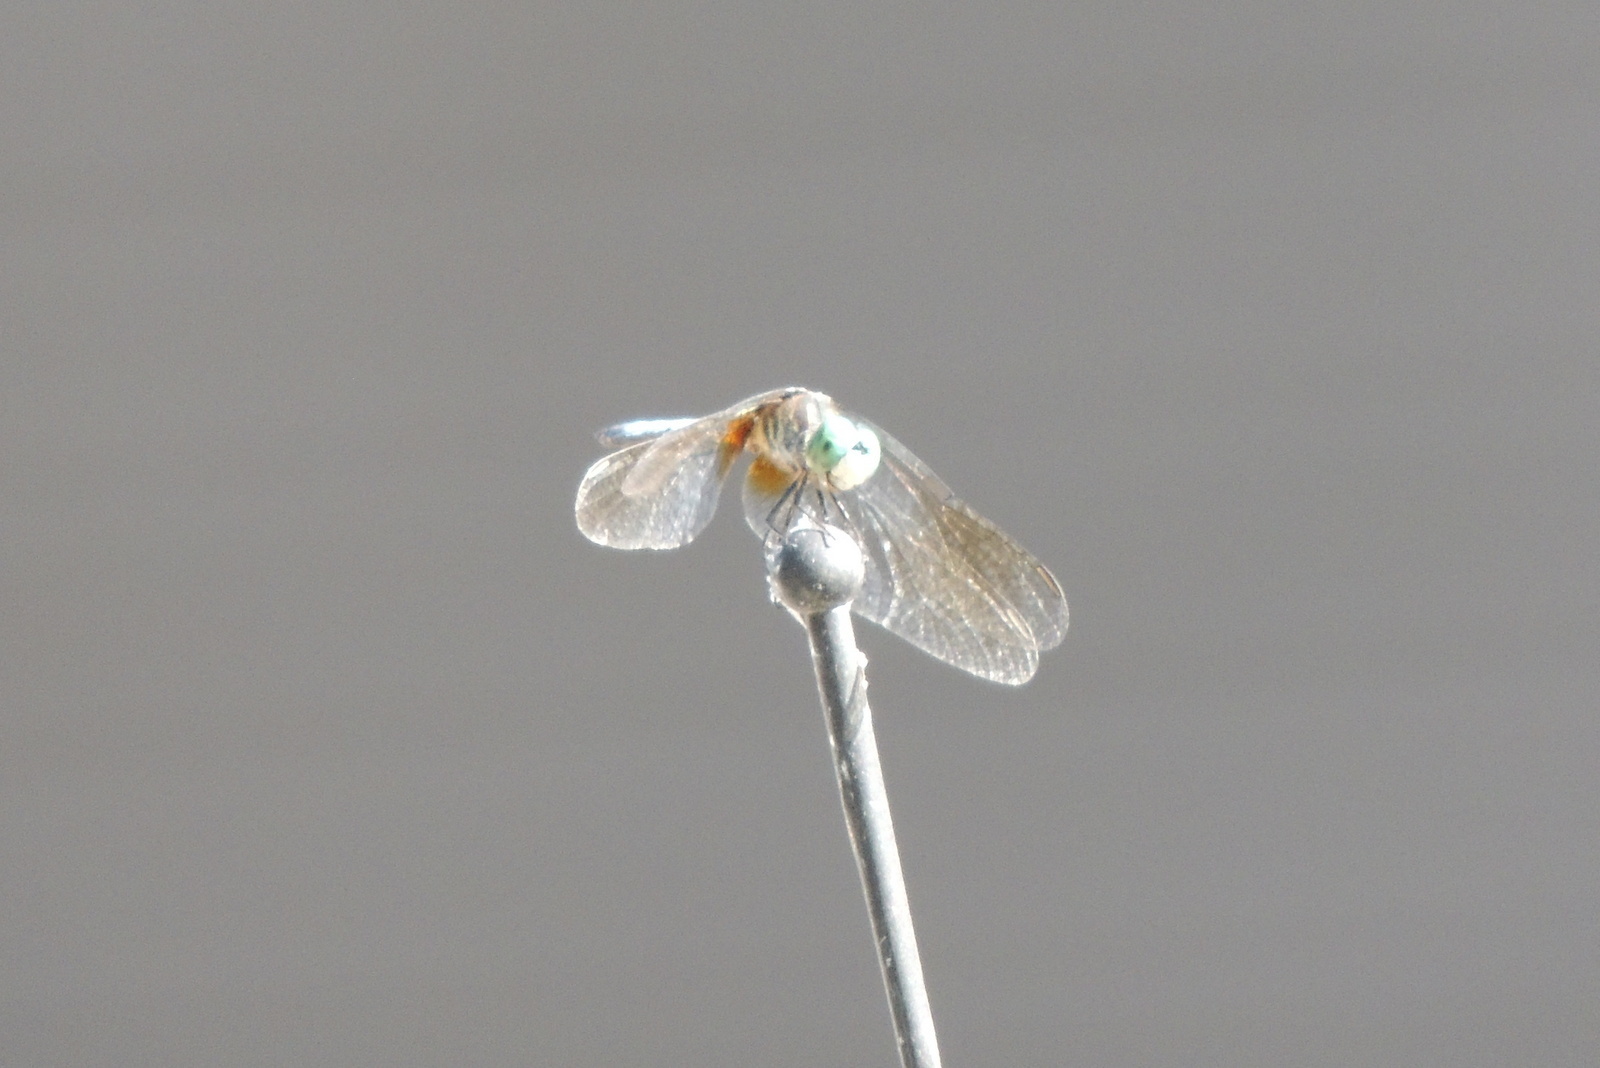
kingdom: Animalia
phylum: Arthropoda
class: Insecta
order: Odonata
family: Libellulidae
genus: Pachydiplax
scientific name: Pachydiplax longipennis
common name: Blue dasher
